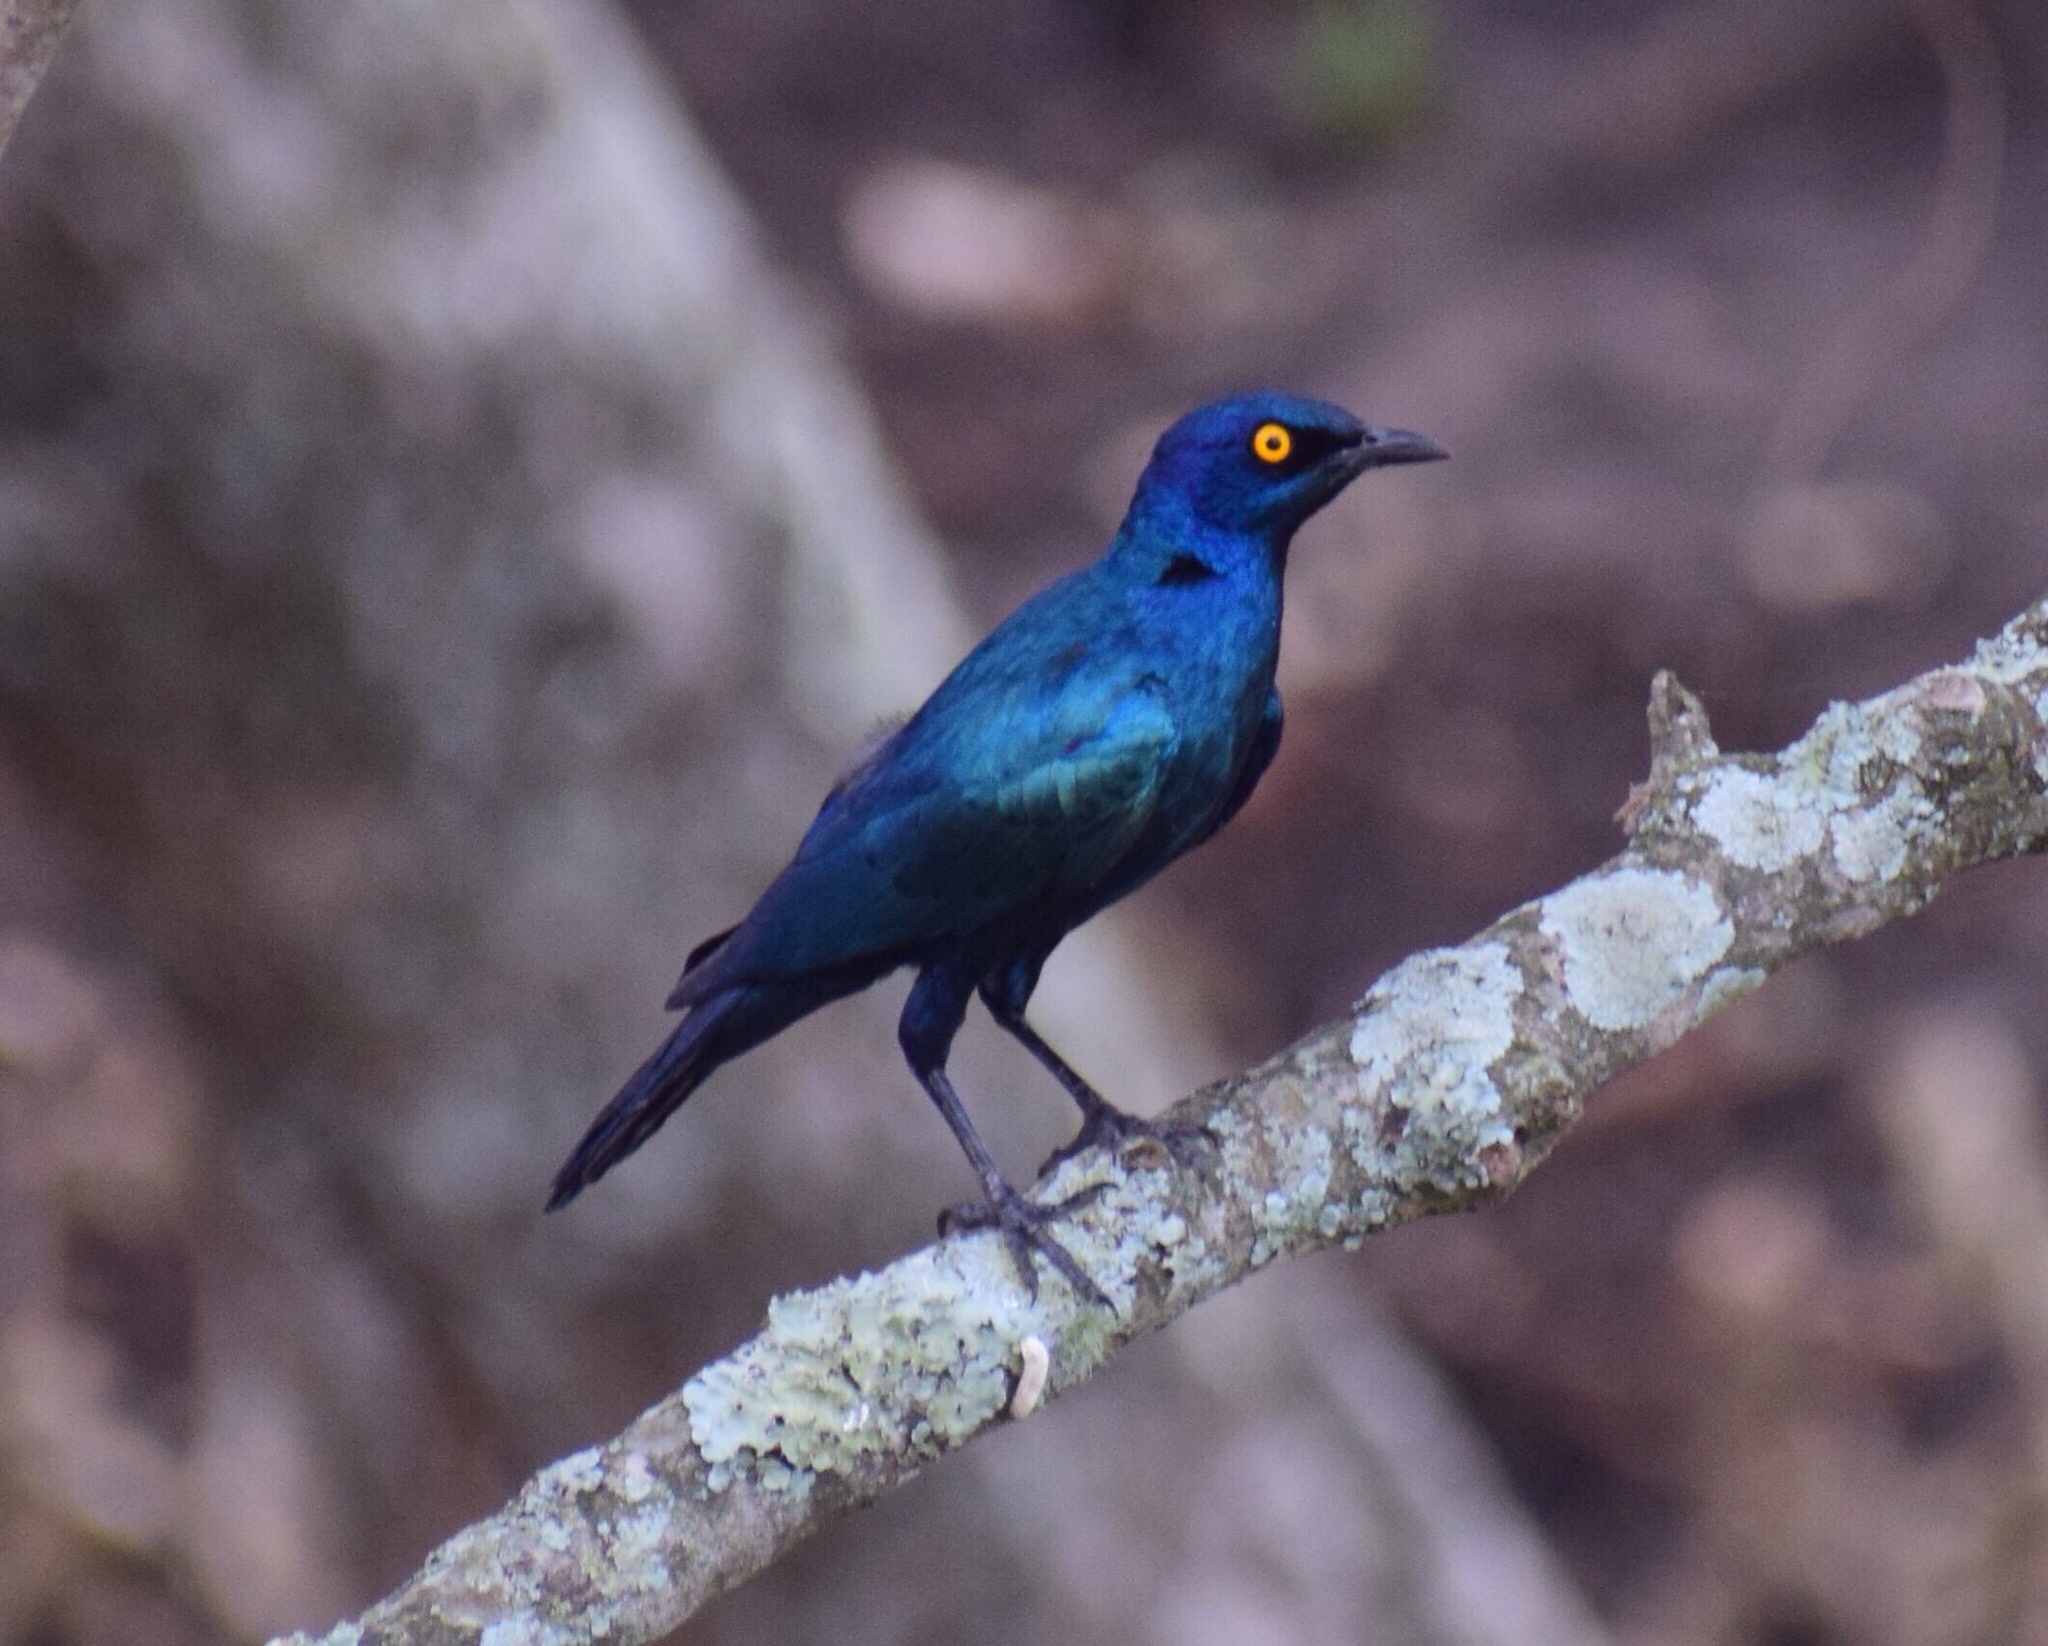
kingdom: Animalia
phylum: Chordata
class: Aves
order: Passeriformes
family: Sturnidae
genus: Lamprotornis
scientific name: Lamprotornis nitens
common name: Cape starling
